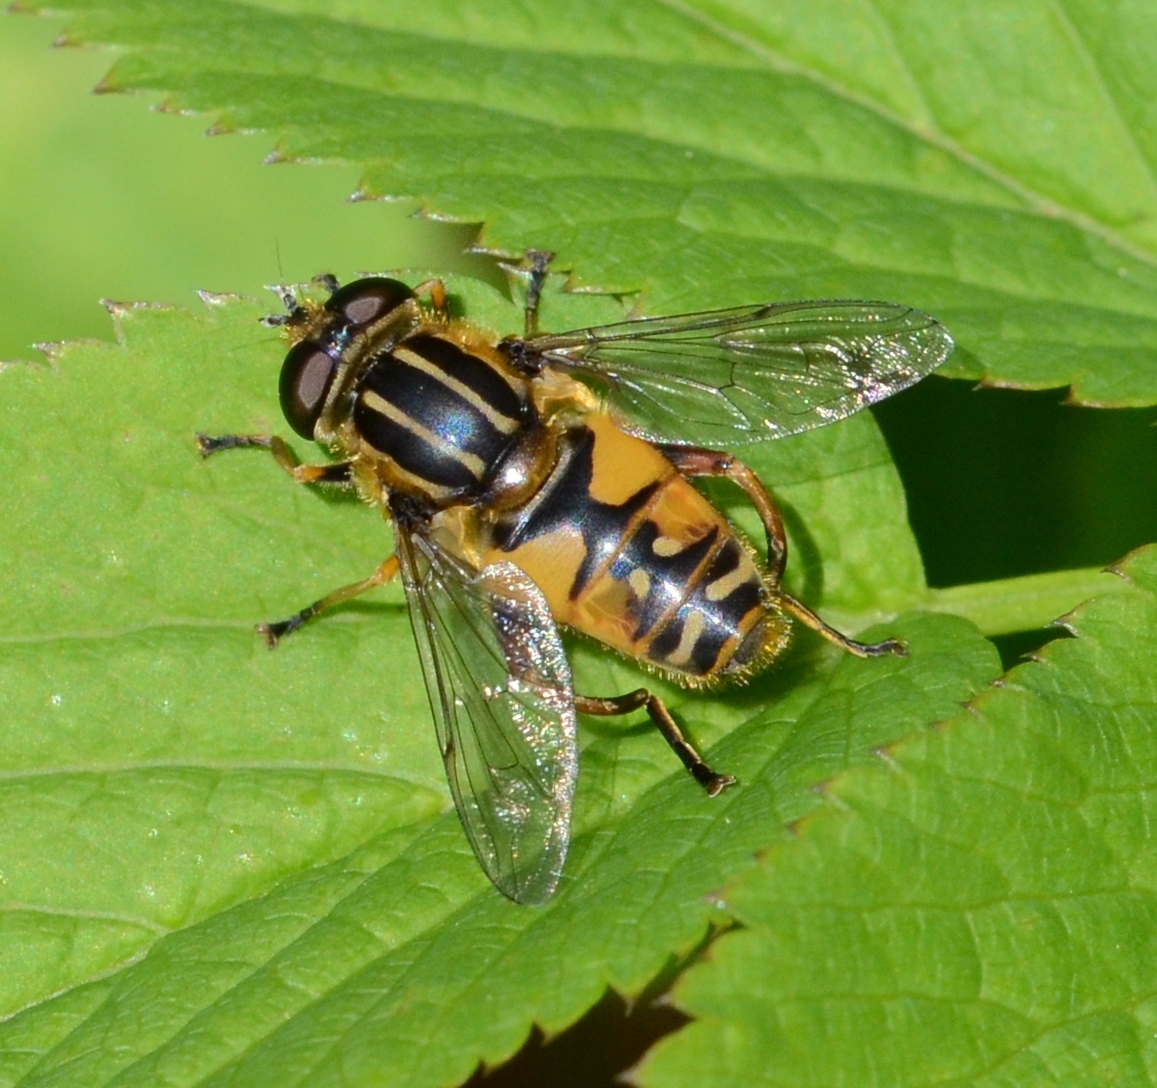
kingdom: Animalia
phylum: Arthropoda
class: Insecta
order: Diptera
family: Syrphidae
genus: Helophilus
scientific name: Helophilus pendulus
